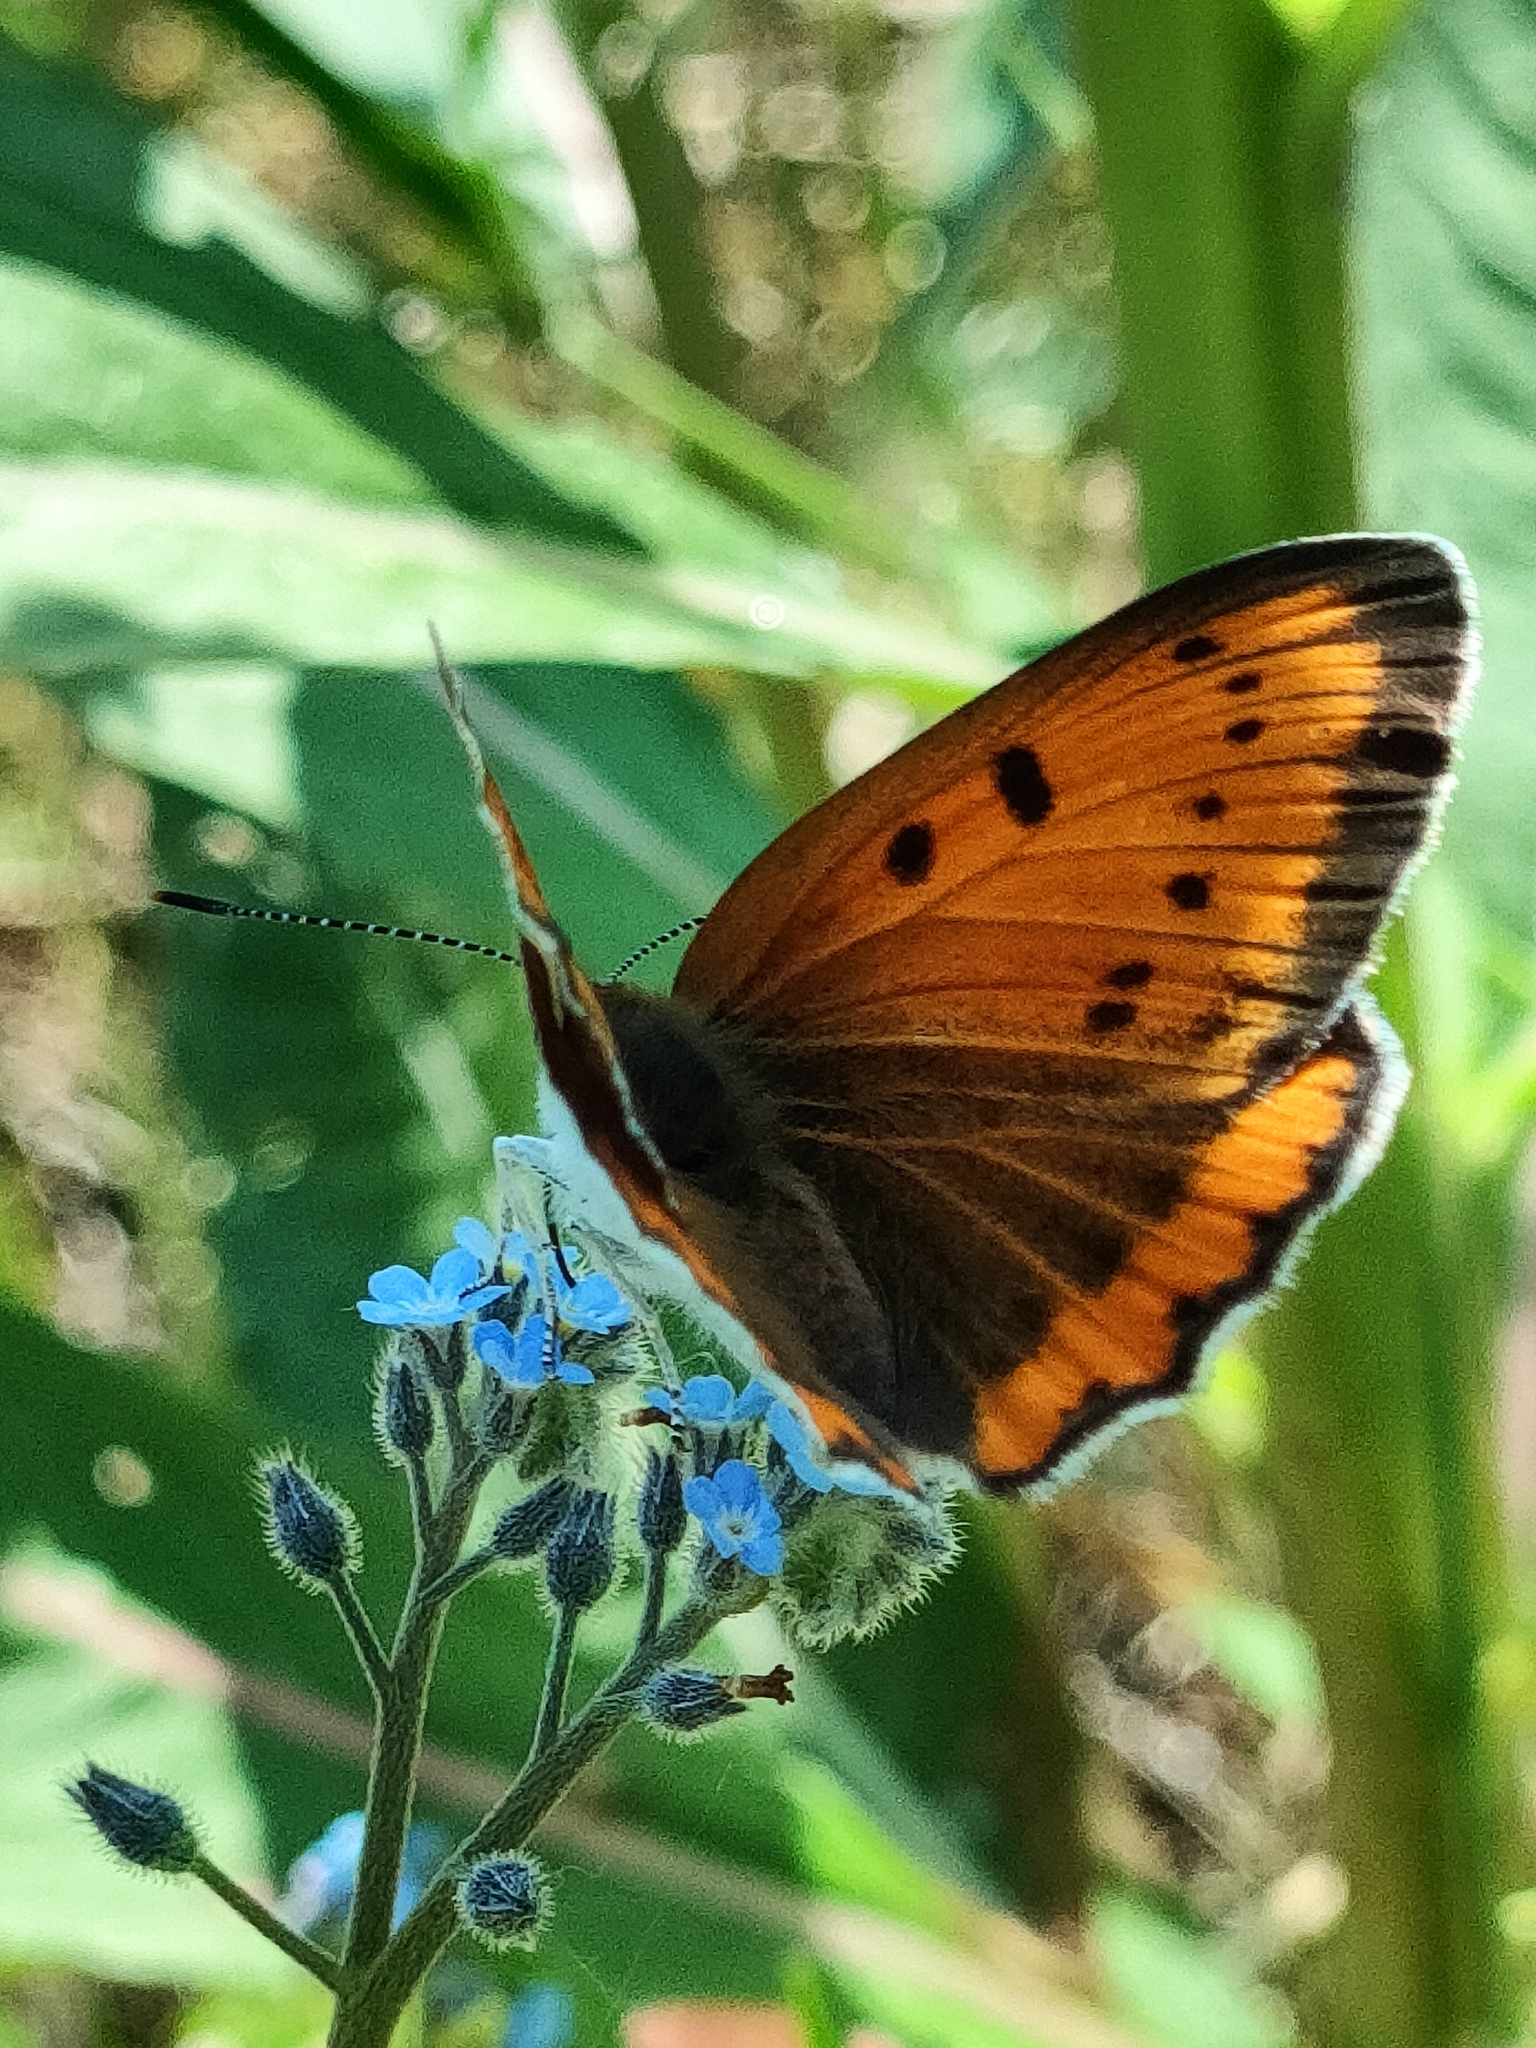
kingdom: Animalia
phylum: Arthropoda
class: Insecta
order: Lepidoptera
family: Lycaenidae
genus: Lycaena
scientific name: Lycaena dispar
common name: Large copper
